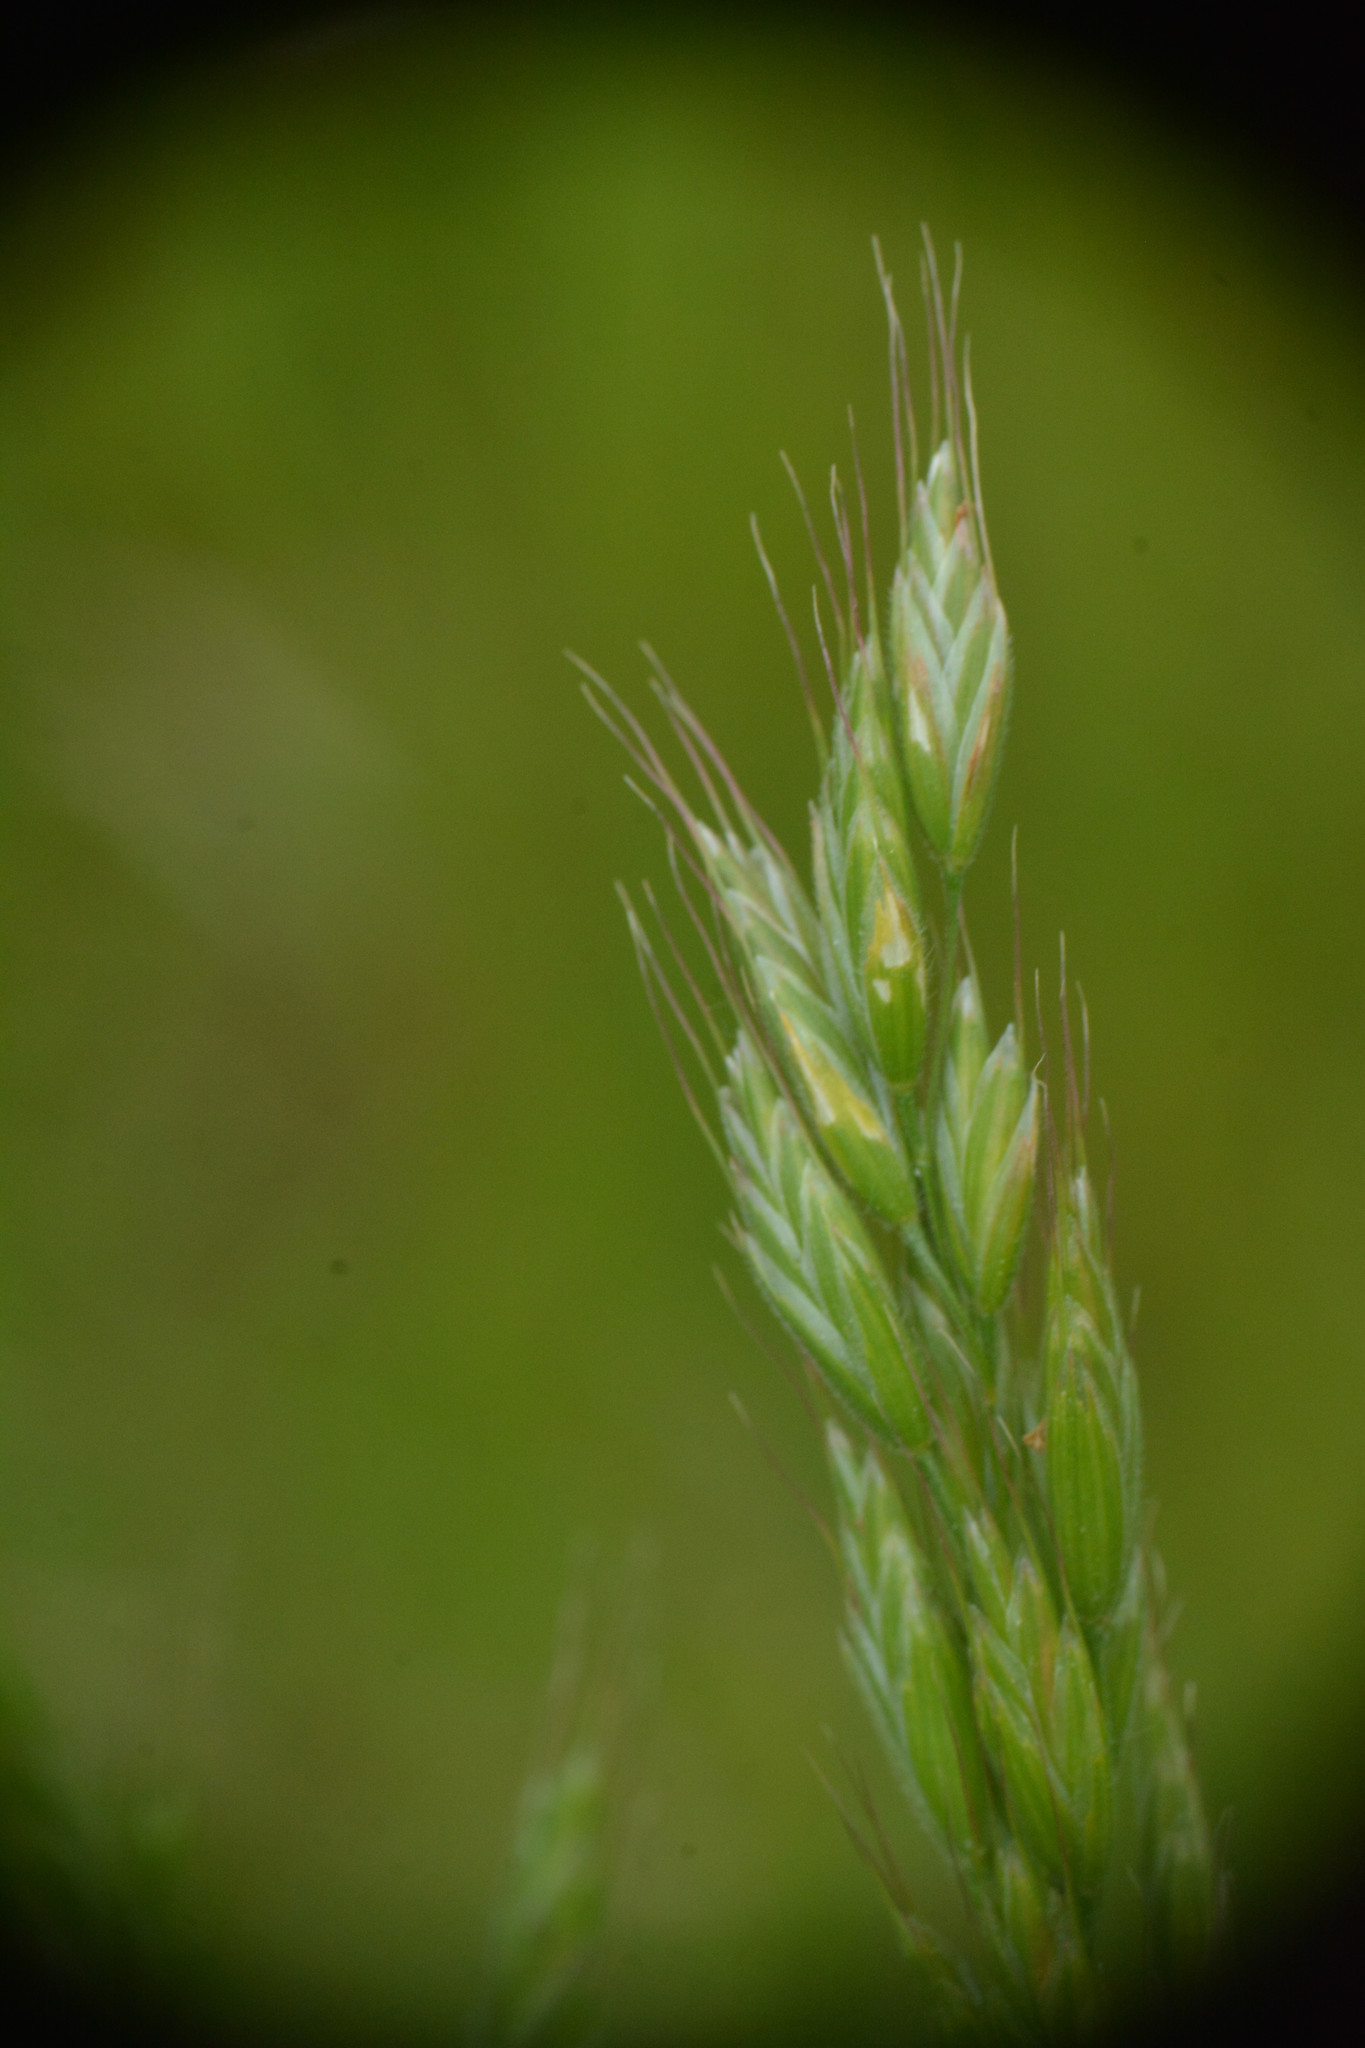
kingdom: Plantae
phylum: Tracheophyta
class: Liliopsida
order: Poales
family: Poaceae
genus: Bromus
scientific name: Bromus hordeaceus
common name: Soft brome
